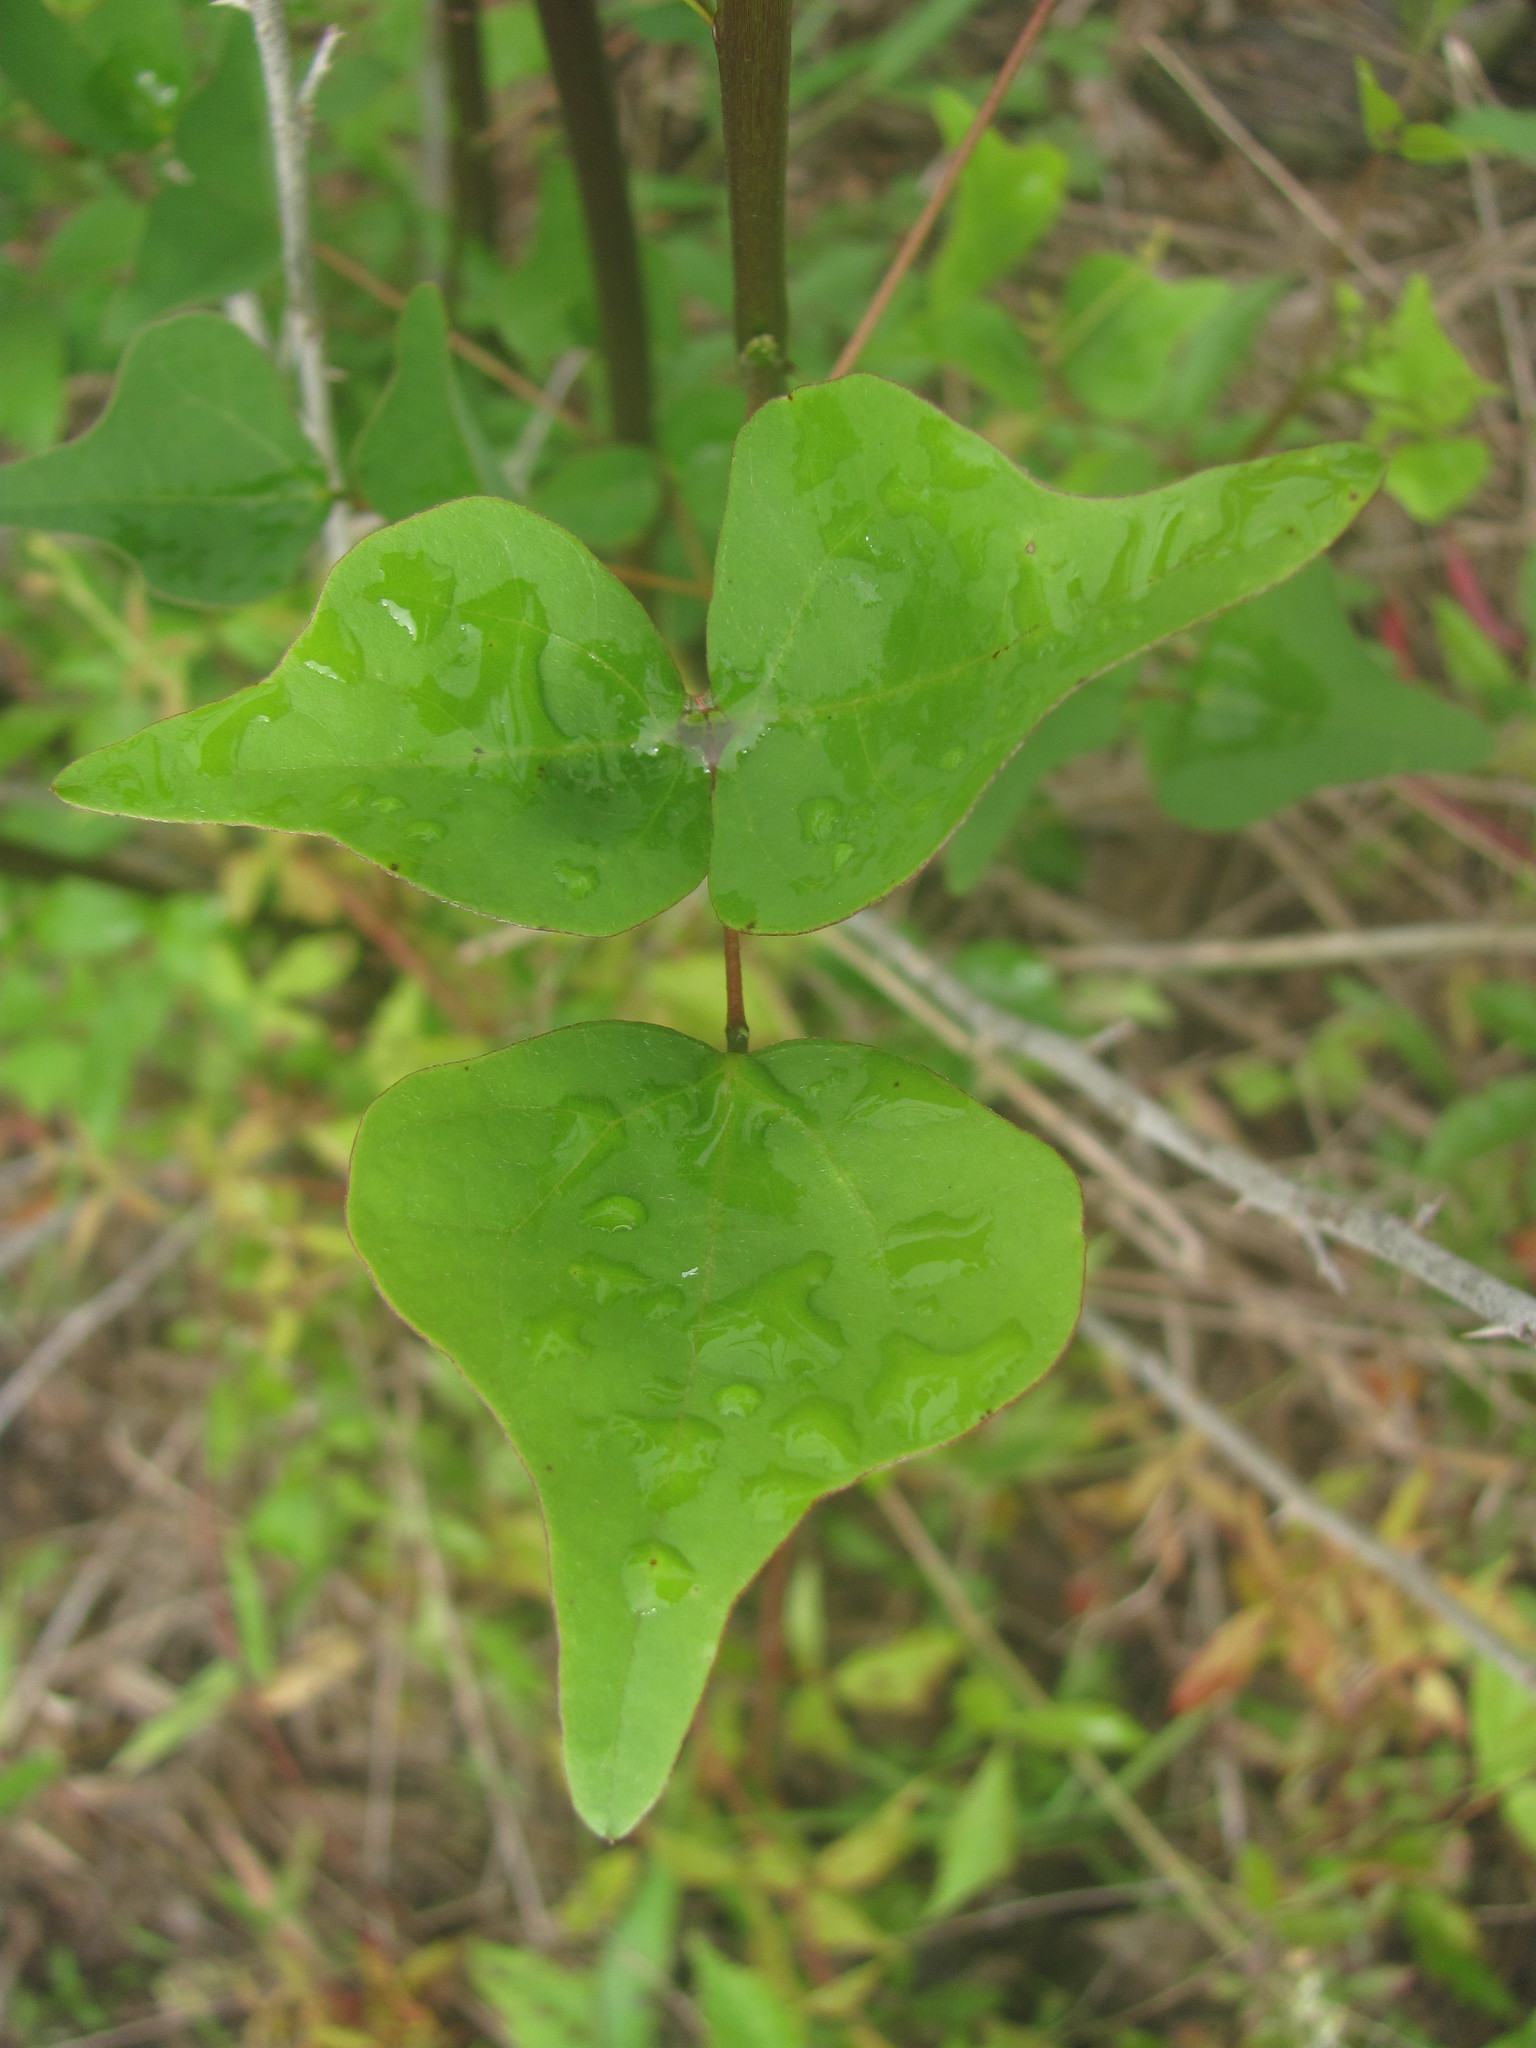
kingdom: Plantae
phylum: Tracheophyta
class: Magnoliopsida
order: Fabales
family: Fabaceae
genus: Erythrina
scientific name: Erythrina herbacea
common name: Coral-bean
